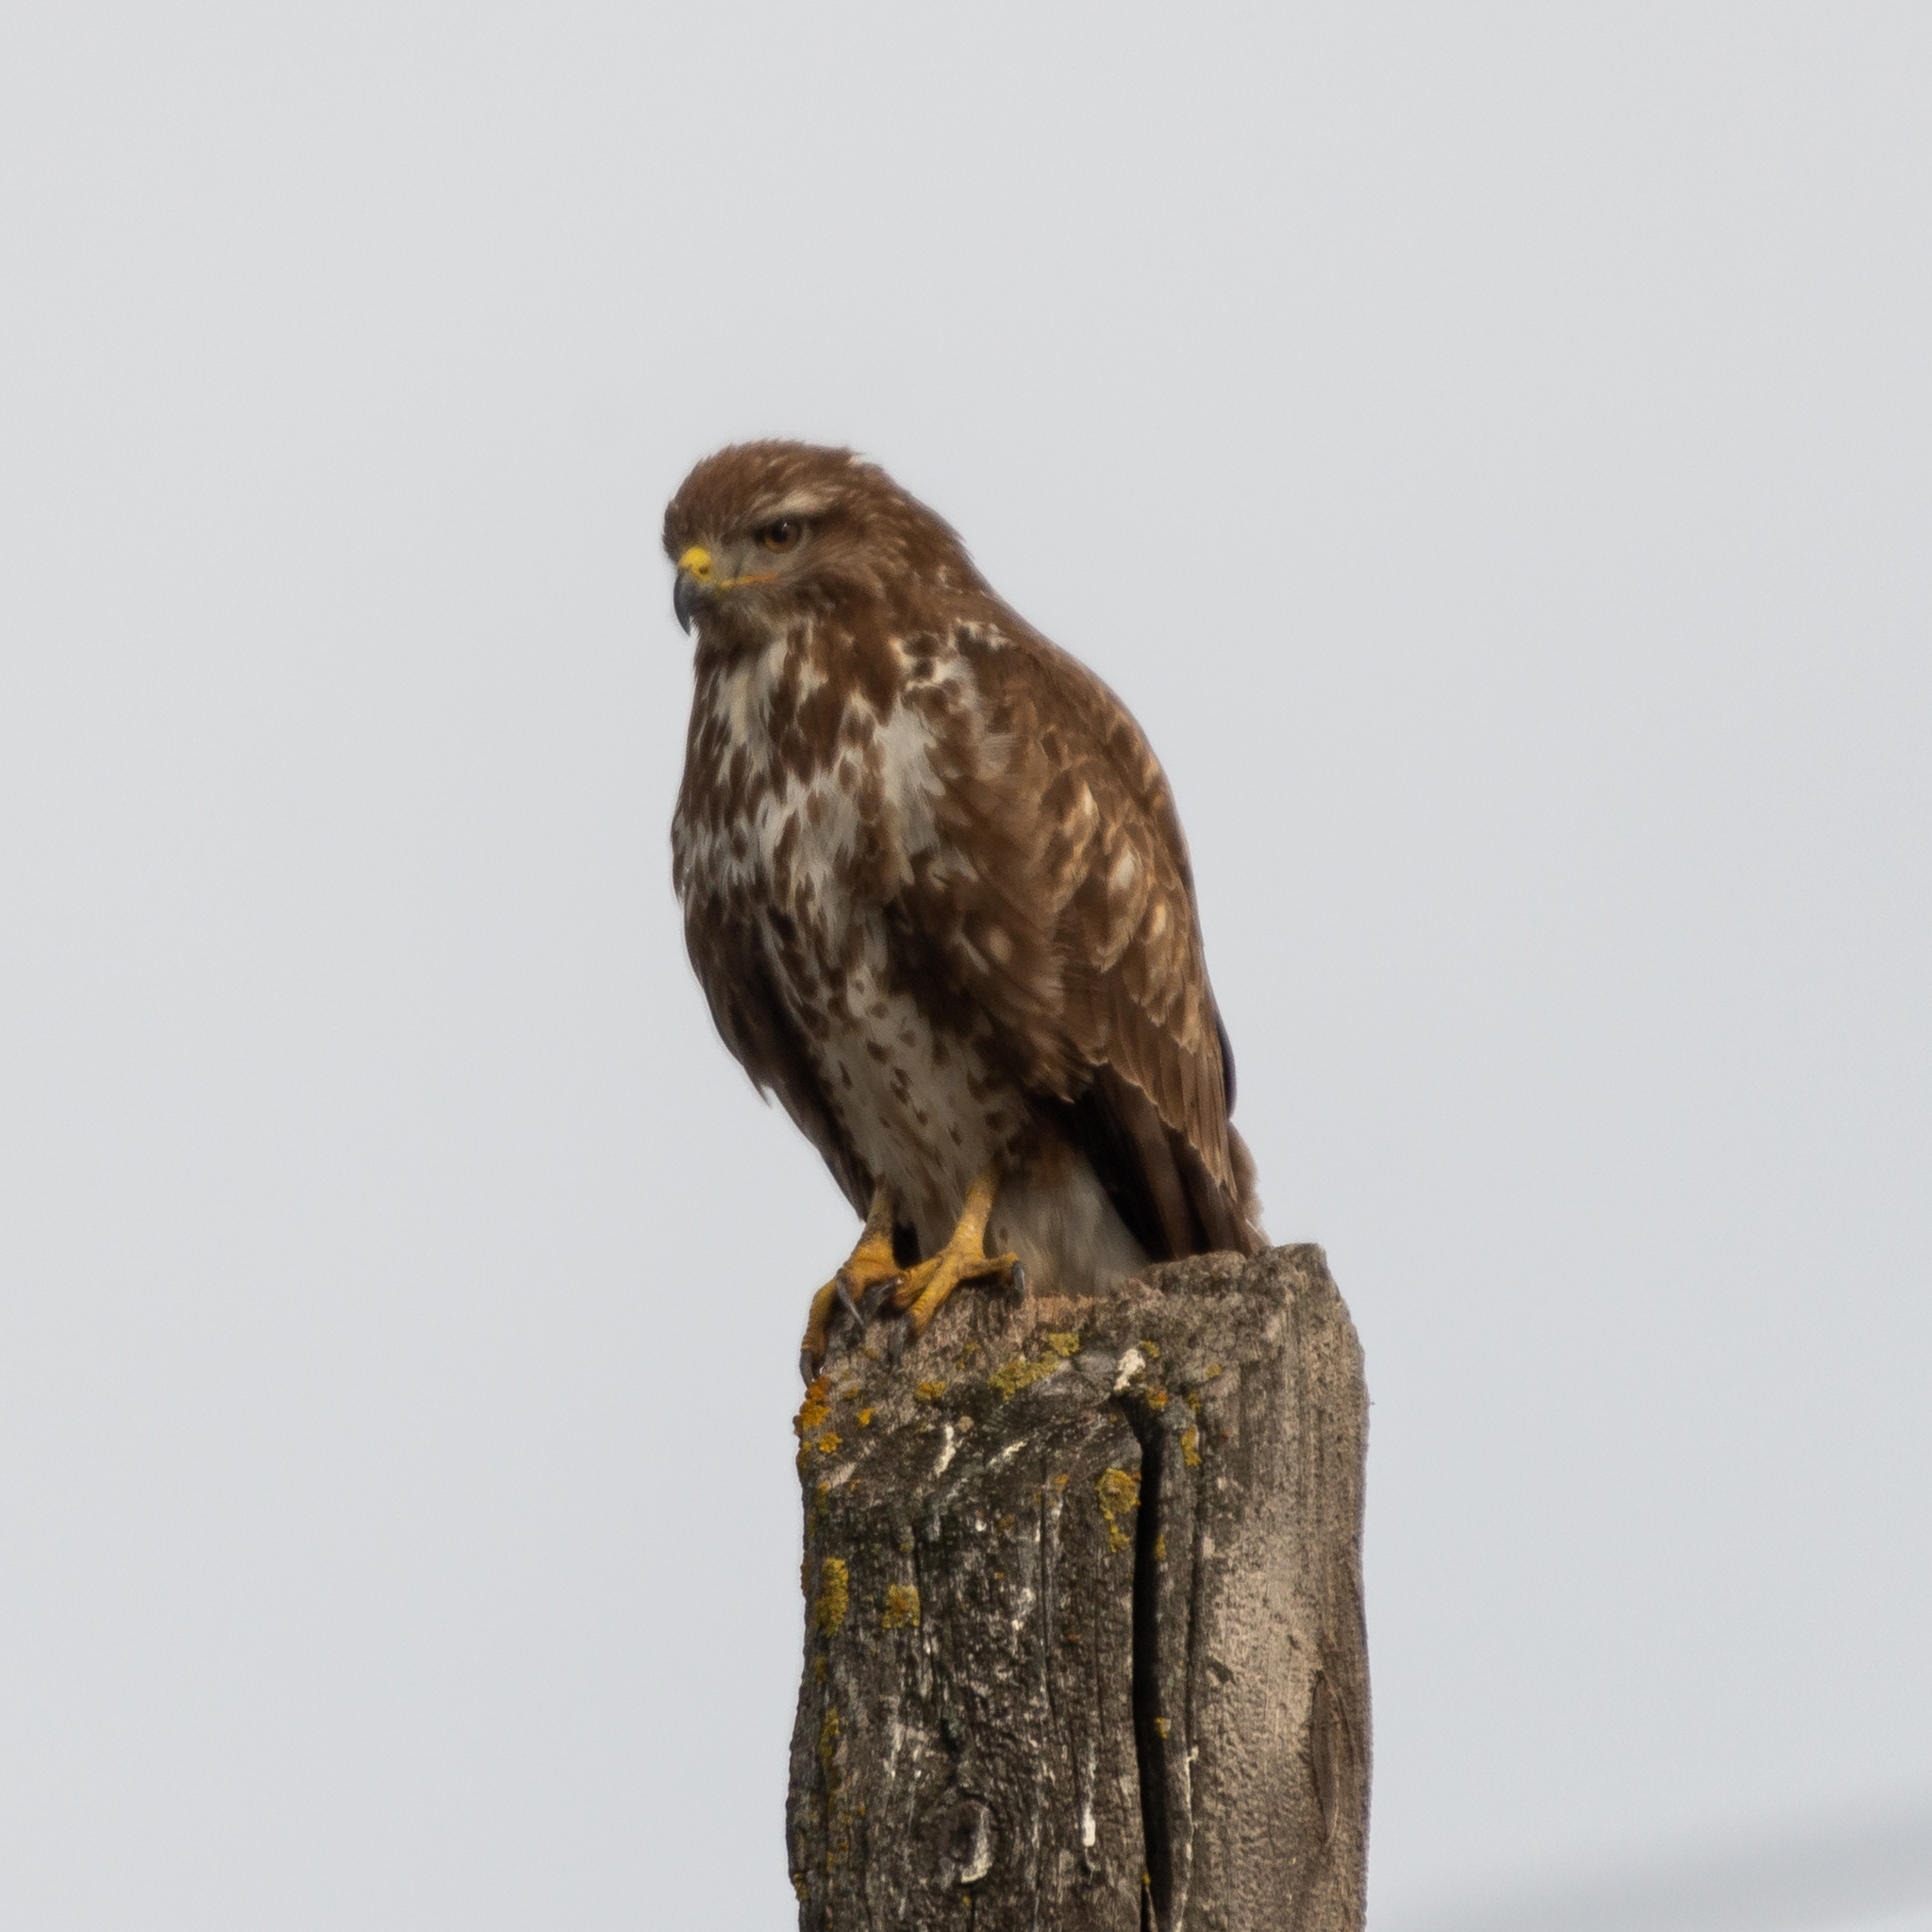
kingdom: Animalia
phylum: Chordata
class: Aves
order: Accipitriformes
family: Accipitridae
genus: Buteo
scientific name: Buteo buteo
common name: Common buzzard
